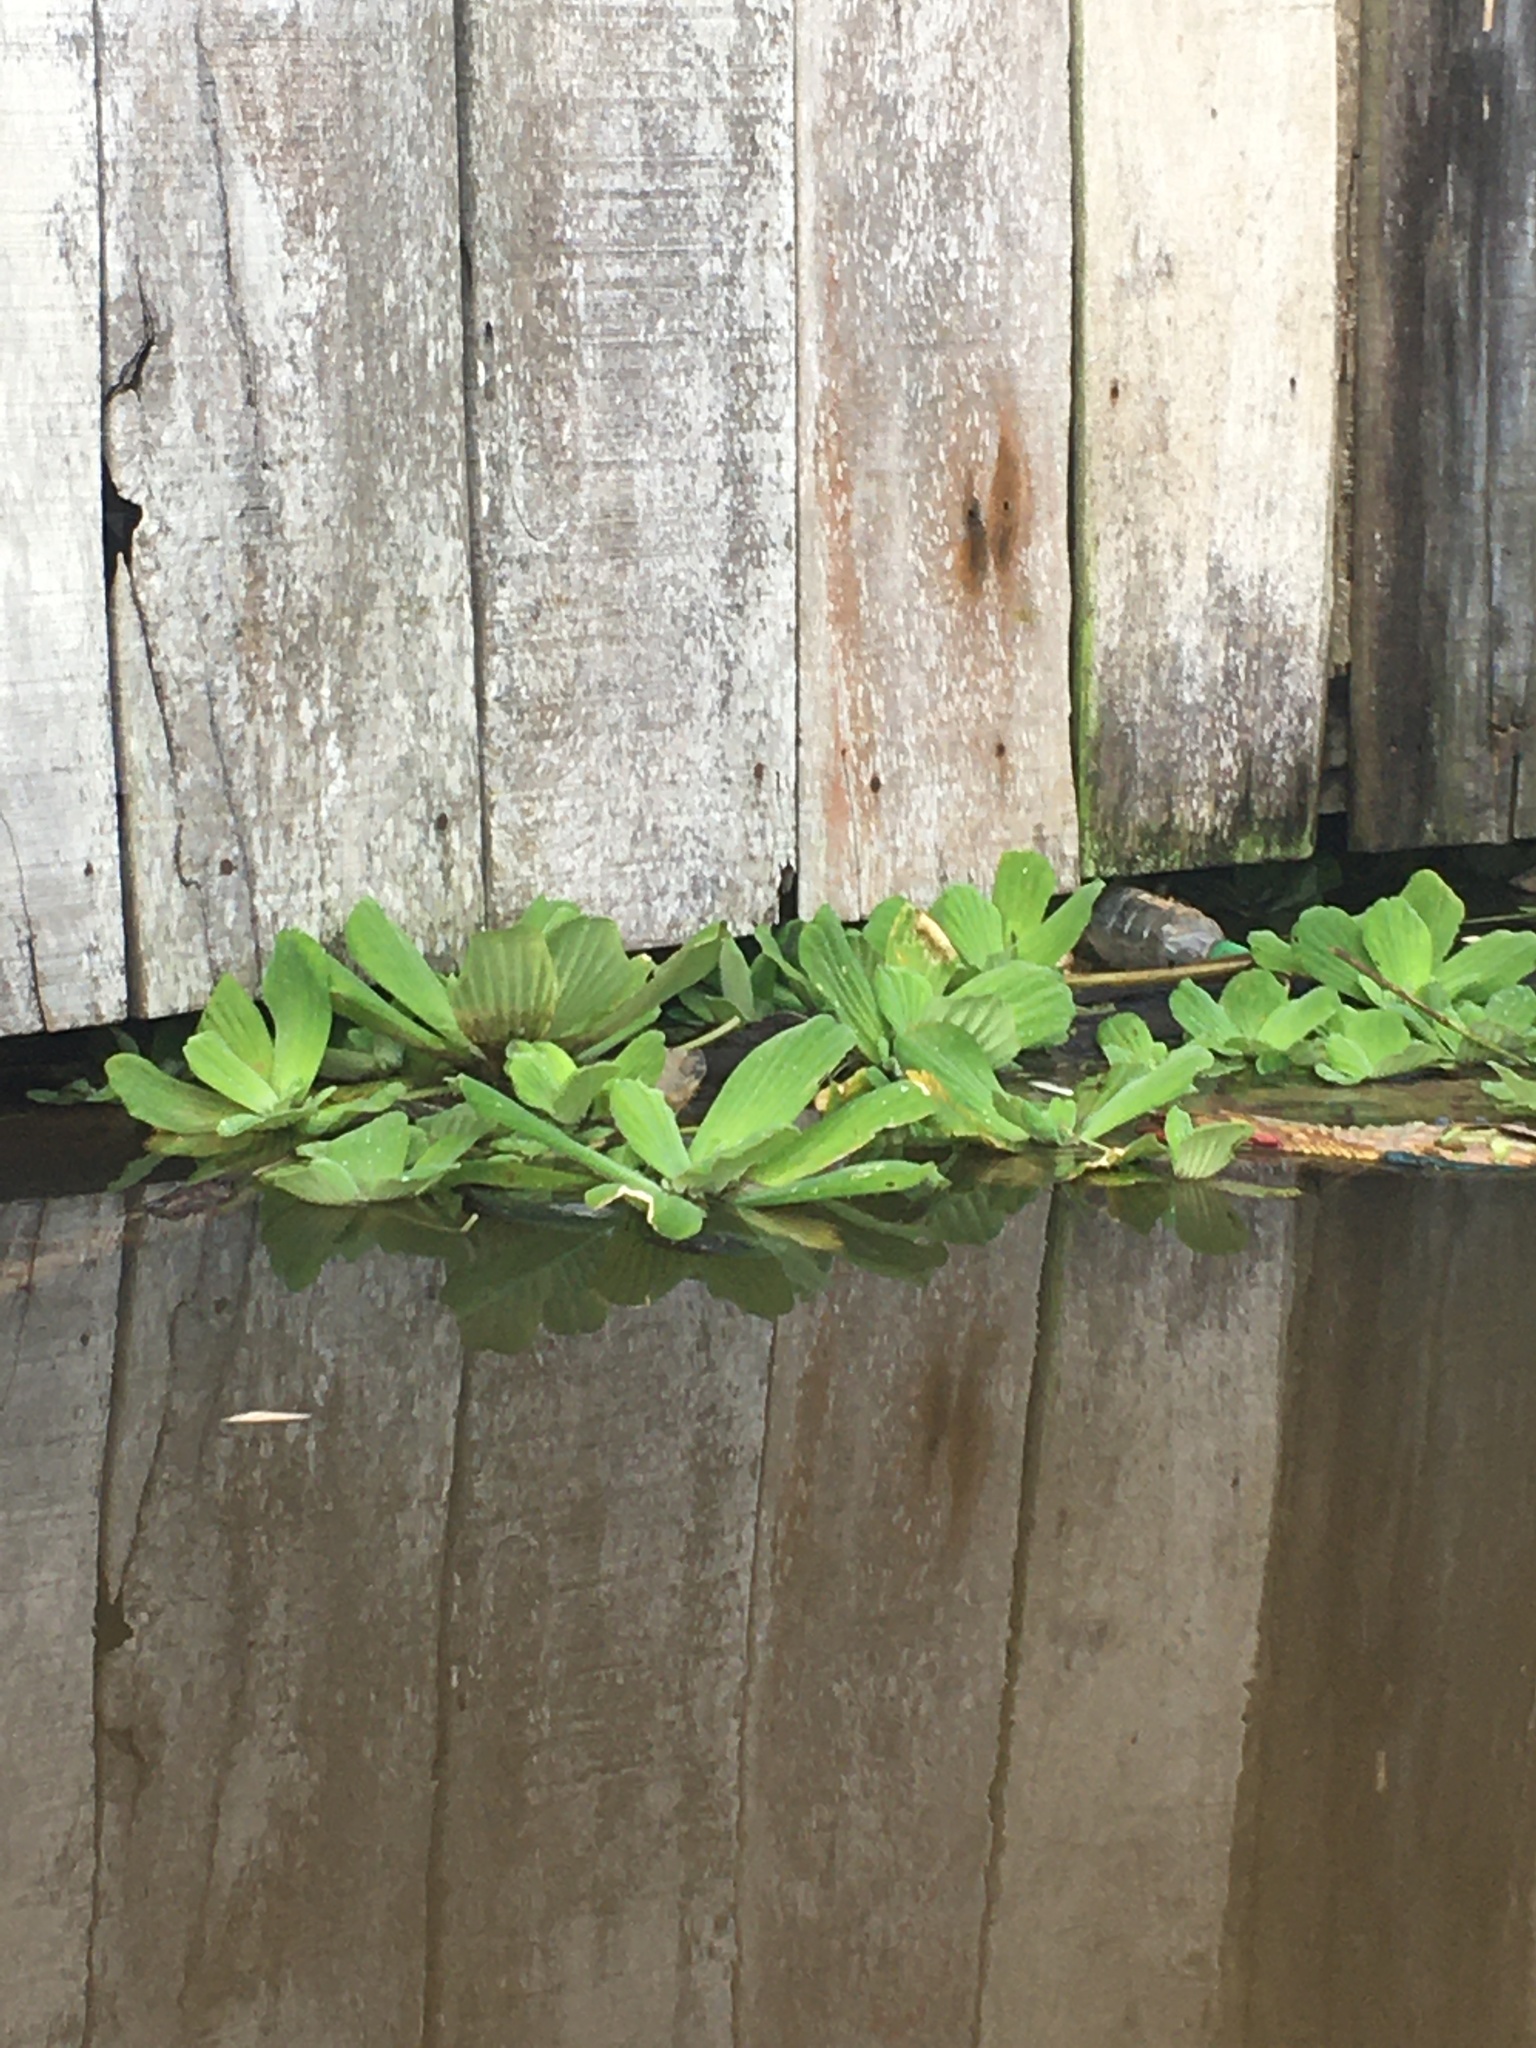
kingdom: Plantae
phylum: Tracheophyta
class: Liliopsida
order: Alismatales
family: Araceae
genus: Pistia
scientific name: Pistia stratiotes
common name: Water lettuce
